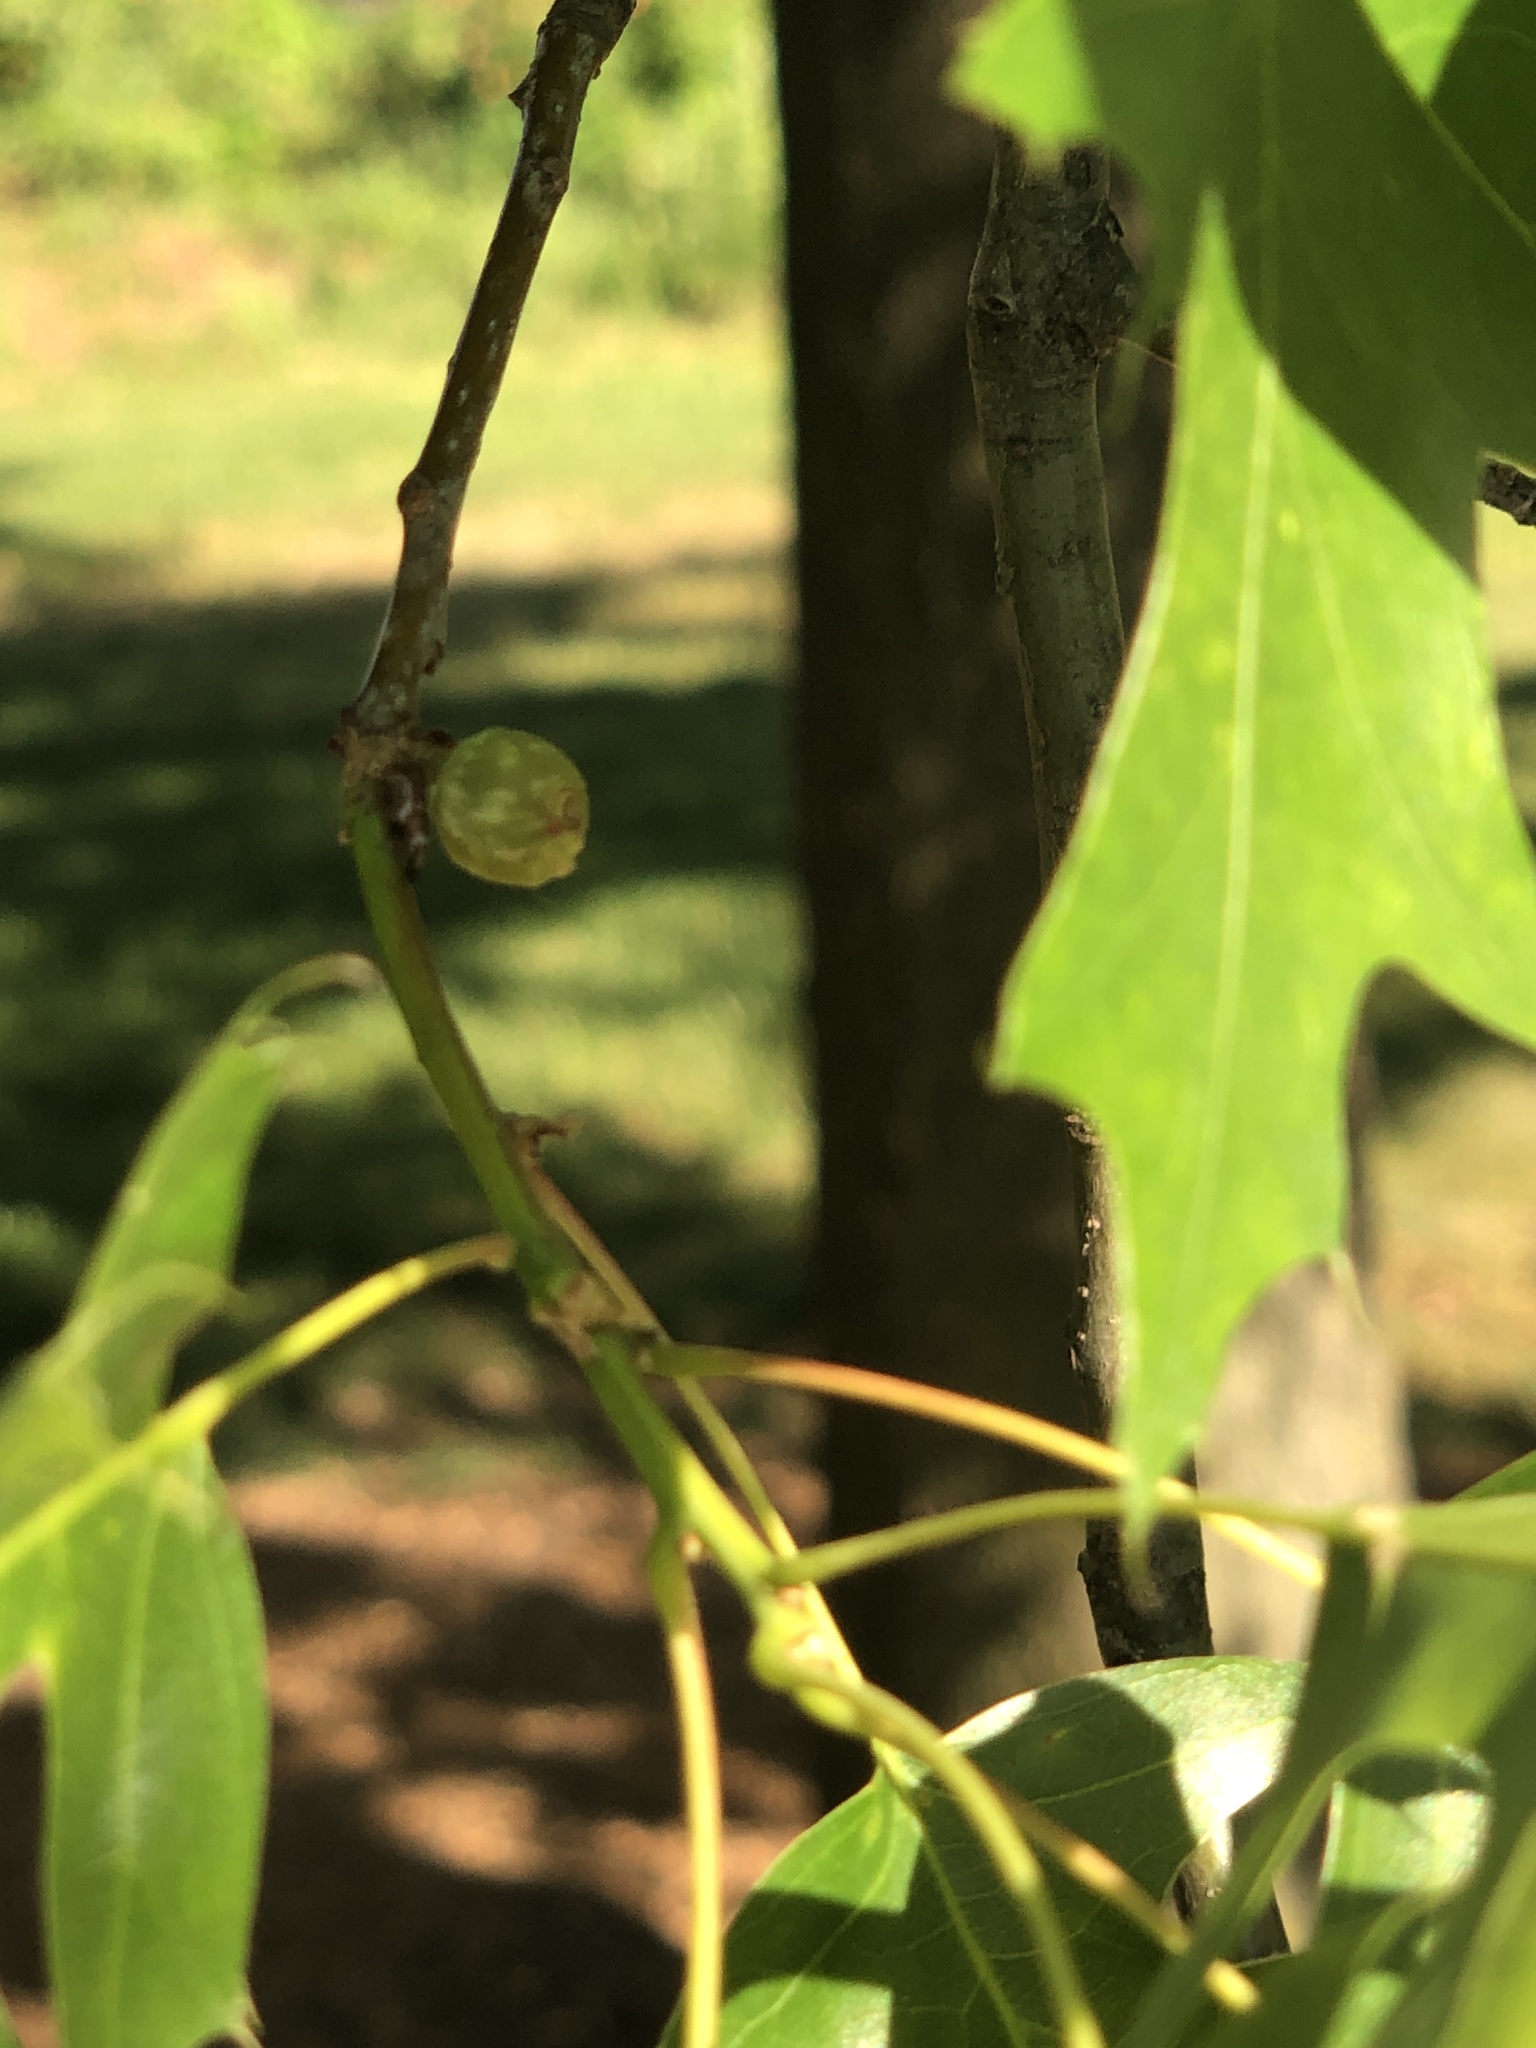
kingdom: Animalia
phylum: Arthropoda
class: Insecta
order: Hymenoptera
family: Cynipidae
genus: Dryocosmus
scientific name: Dryocosmus quercuspalustris
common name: Succulent oak gall wasp
